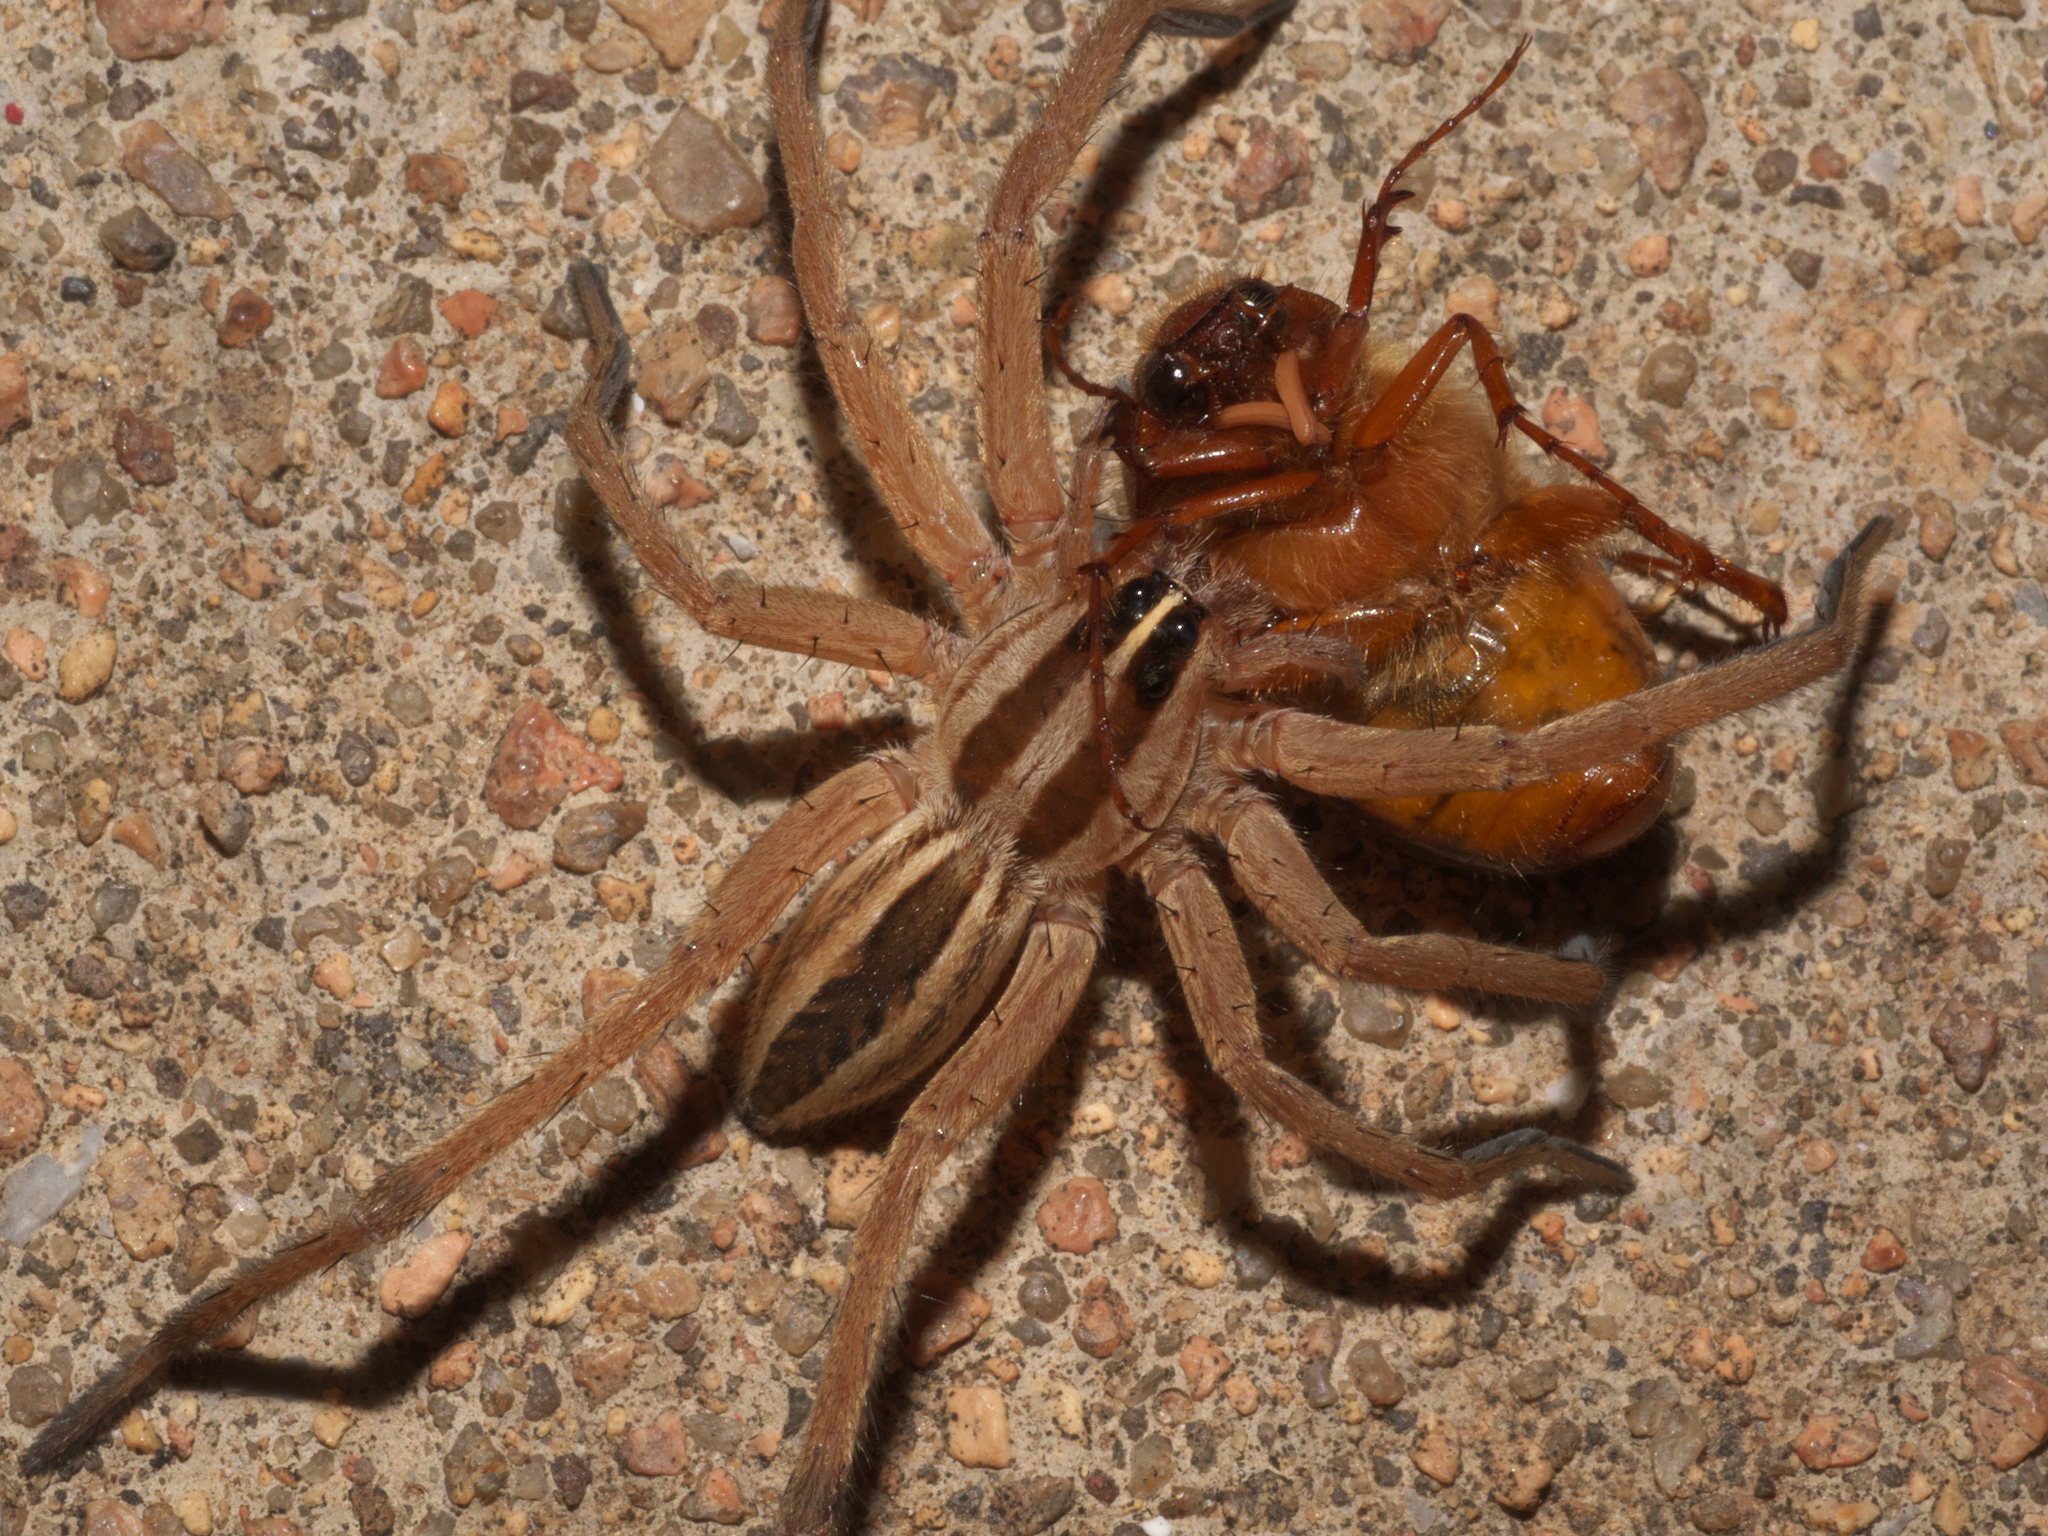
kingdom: Animalia
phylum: Arthropoda
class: Arachnida
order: Araneae
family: Lycosidae
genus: Rabidosa
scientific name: Rabidosa rabida
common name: Rabid wolf spider
